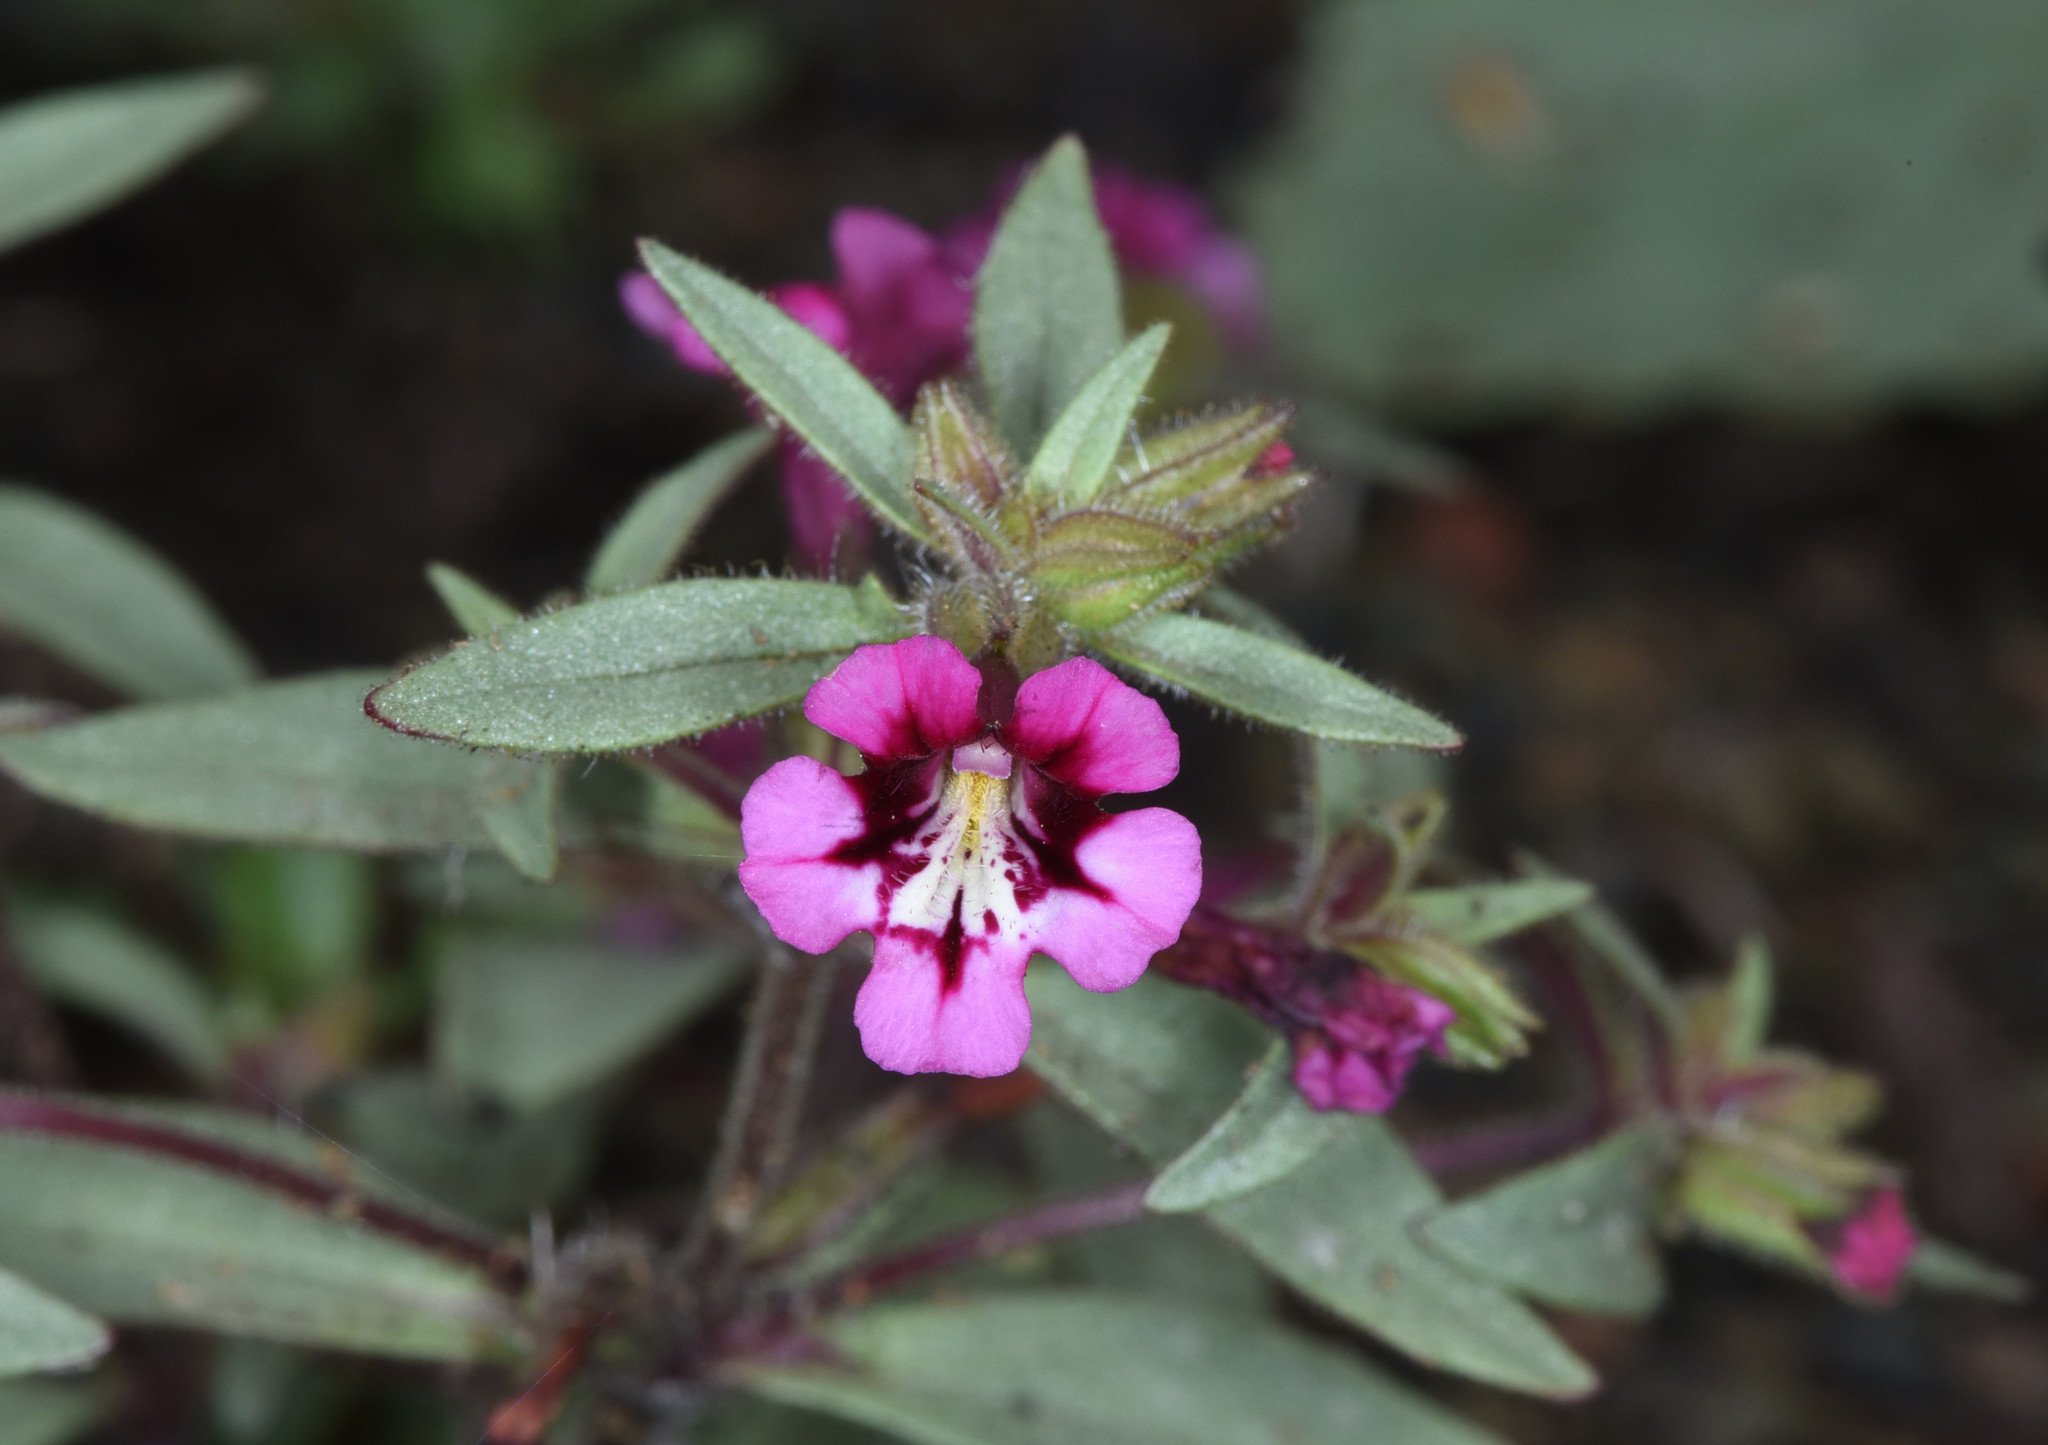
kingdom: Plantae
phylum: Tracheophyta
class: Magnoliopsida
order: Lamiales
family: Phrymaceae
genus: Diplacus
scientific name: Diplacus layneae
